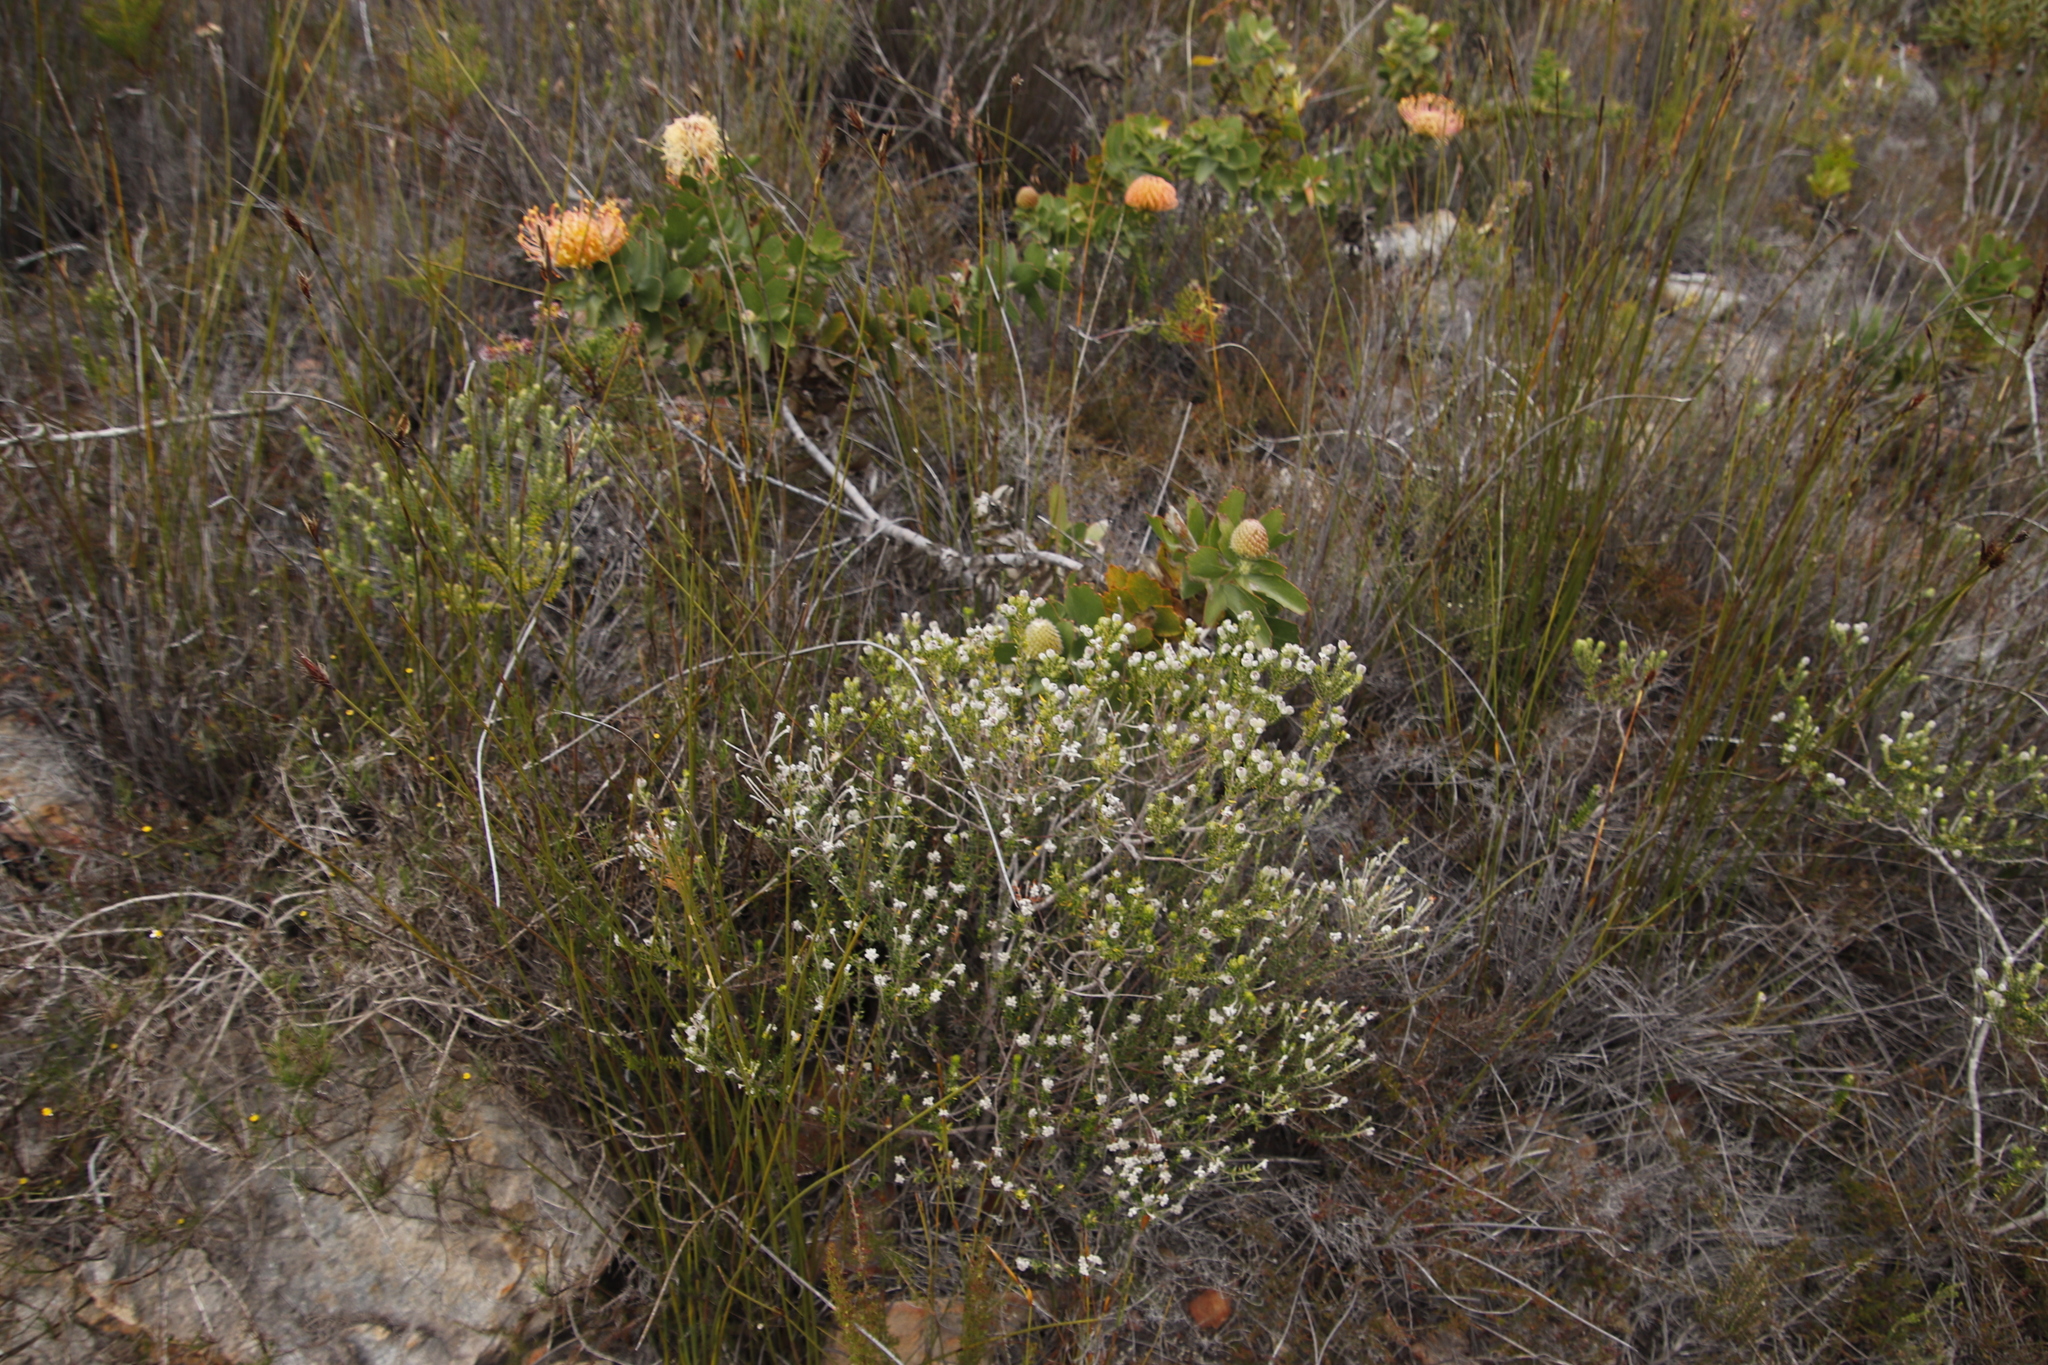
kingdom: Plantae
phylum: Tracheophyta
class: Magnoliopsida
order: Proteales
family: Proteaceae
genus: Leucospermum
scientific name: Leucospermum cordifolium
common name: Red pincushion-protea
